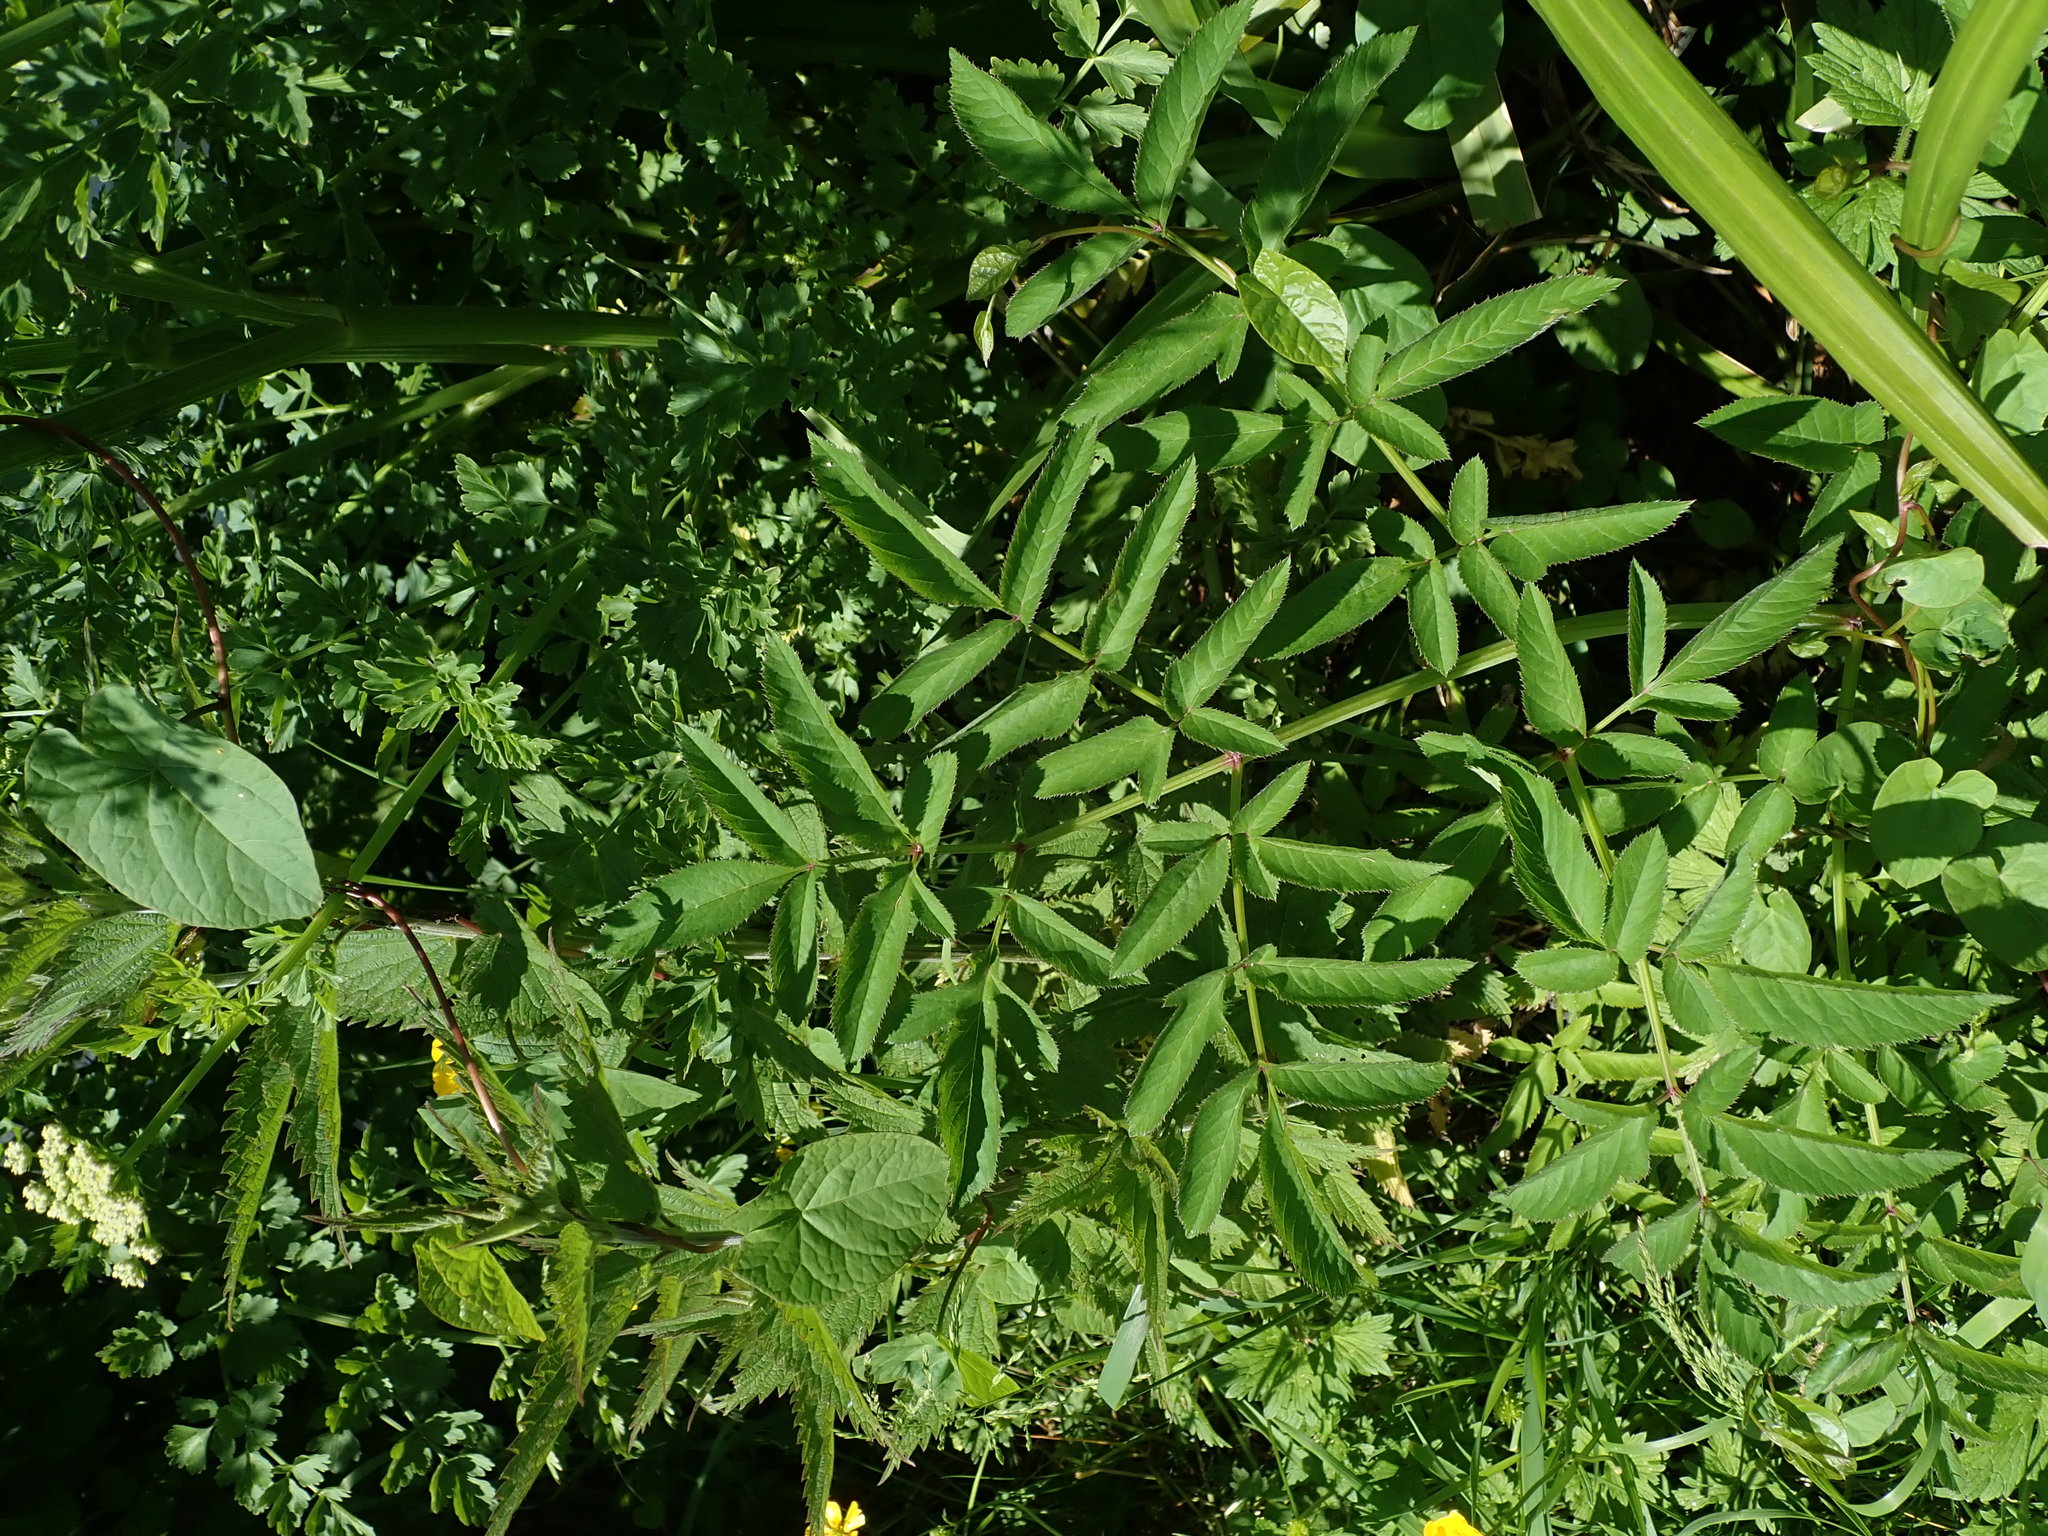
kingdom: Plantae
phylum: Tracheophyta
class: Magnoliopsida
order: Apiales
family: Apiaceae
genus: Angelica
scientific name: Angelica sylvestris
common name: Wild angelica
